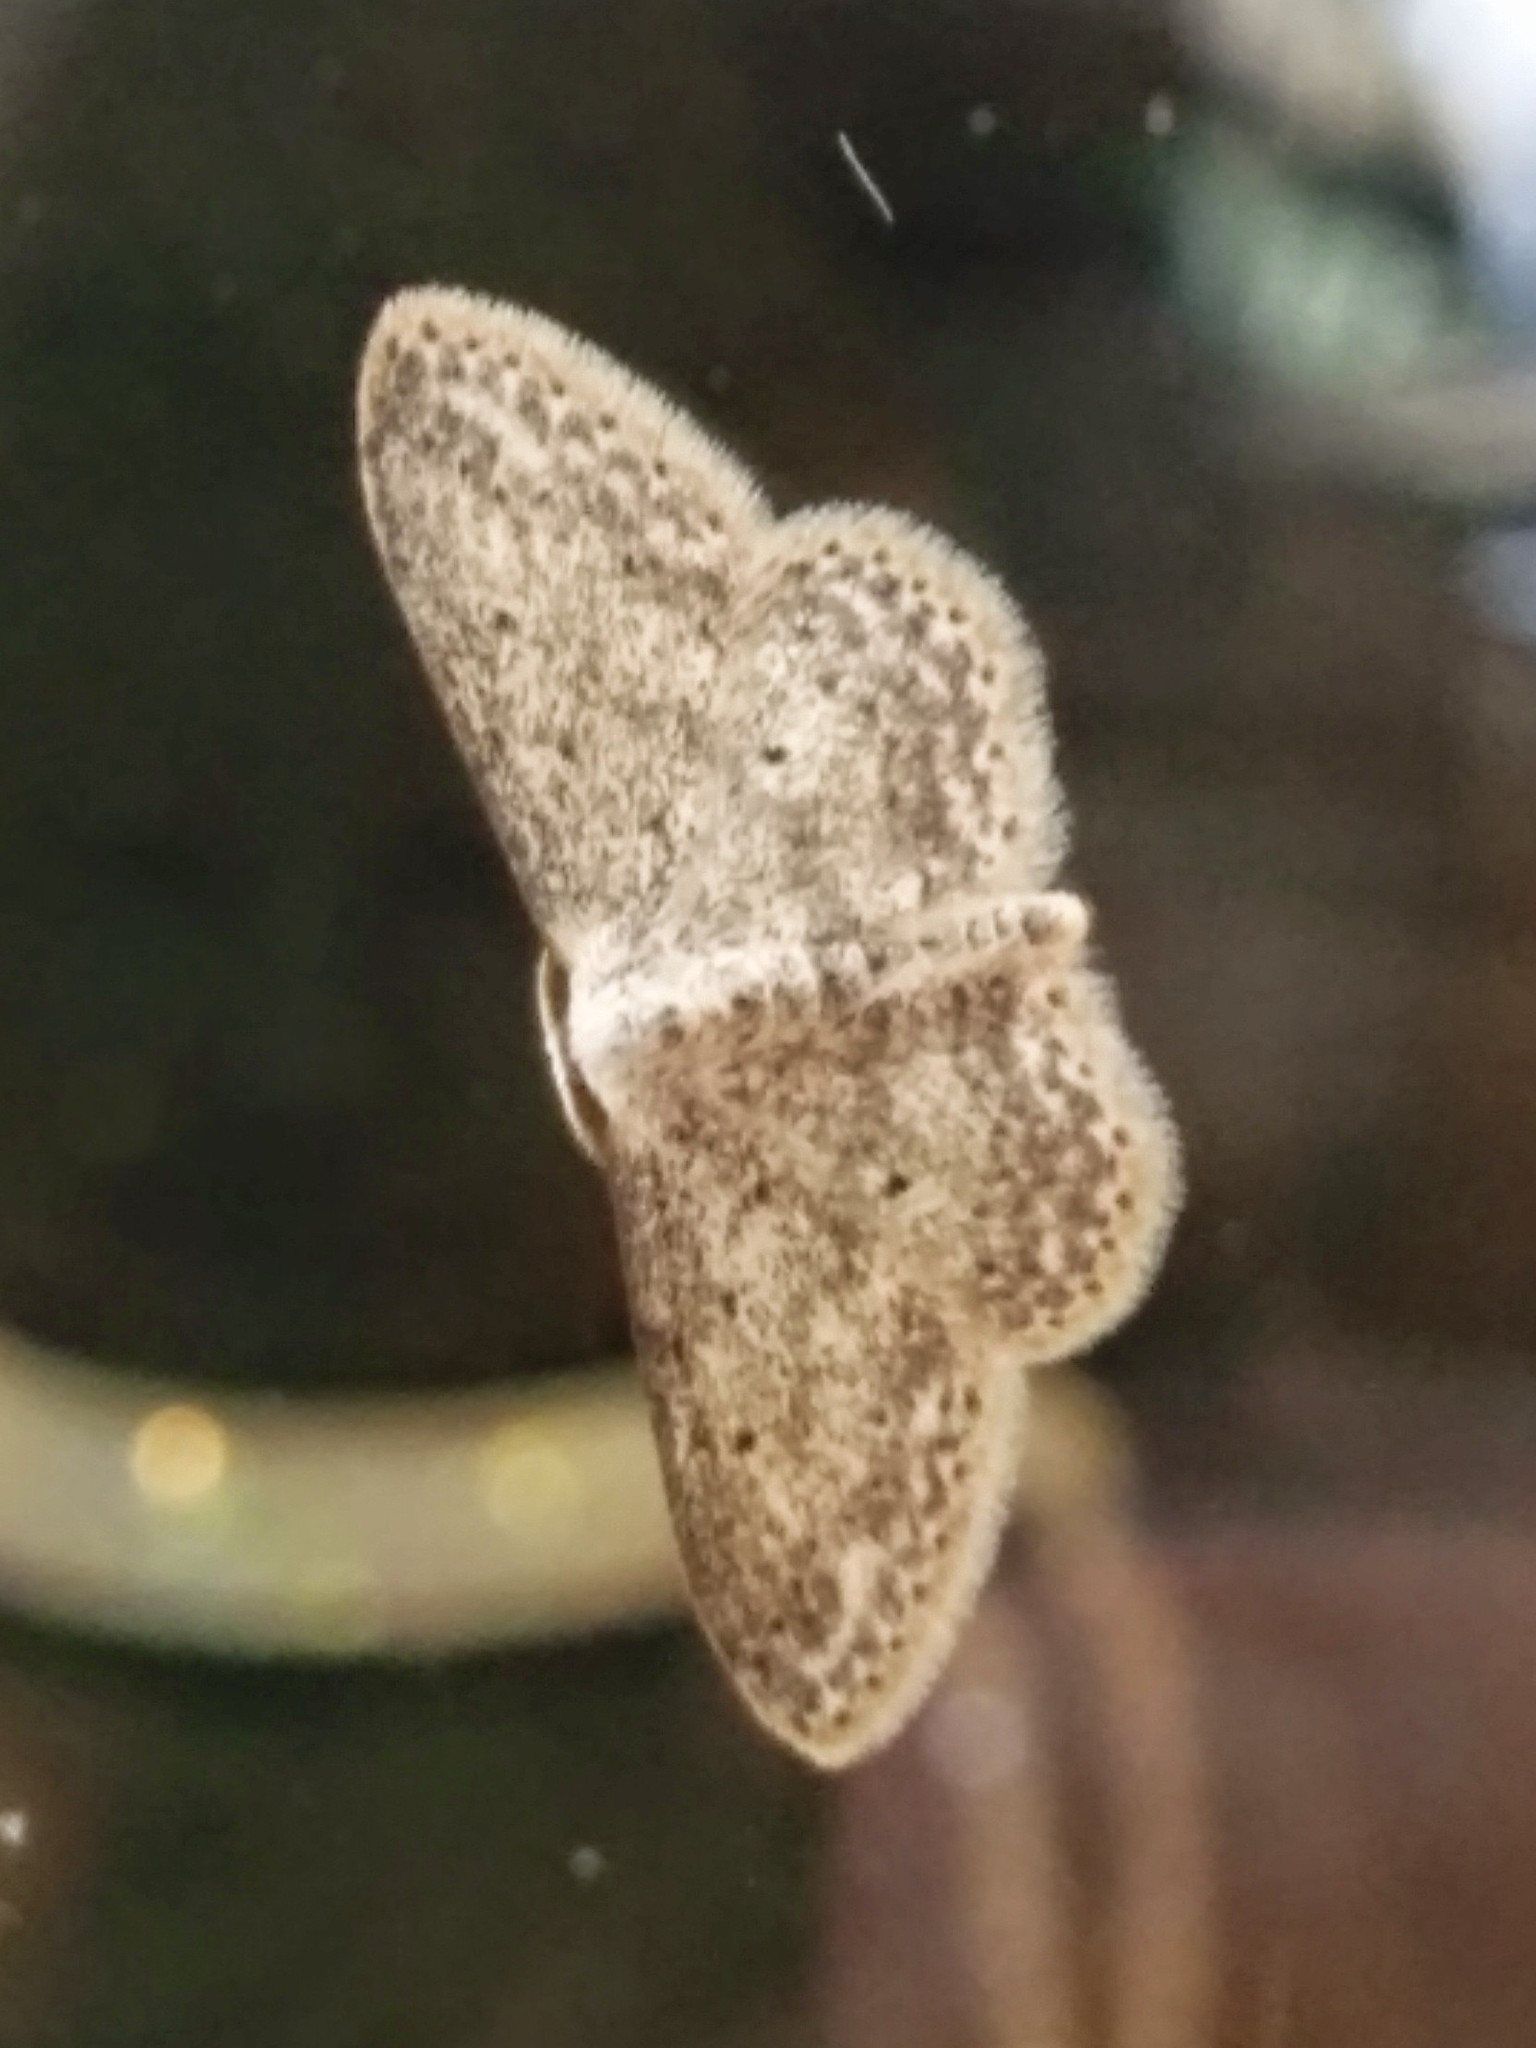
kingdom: Animalia
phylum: Arthropoda
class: Insecta
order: Lepidoptera
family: Geometridae
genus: Idaea
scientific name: Idaea seriata
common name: Small dusty wave
